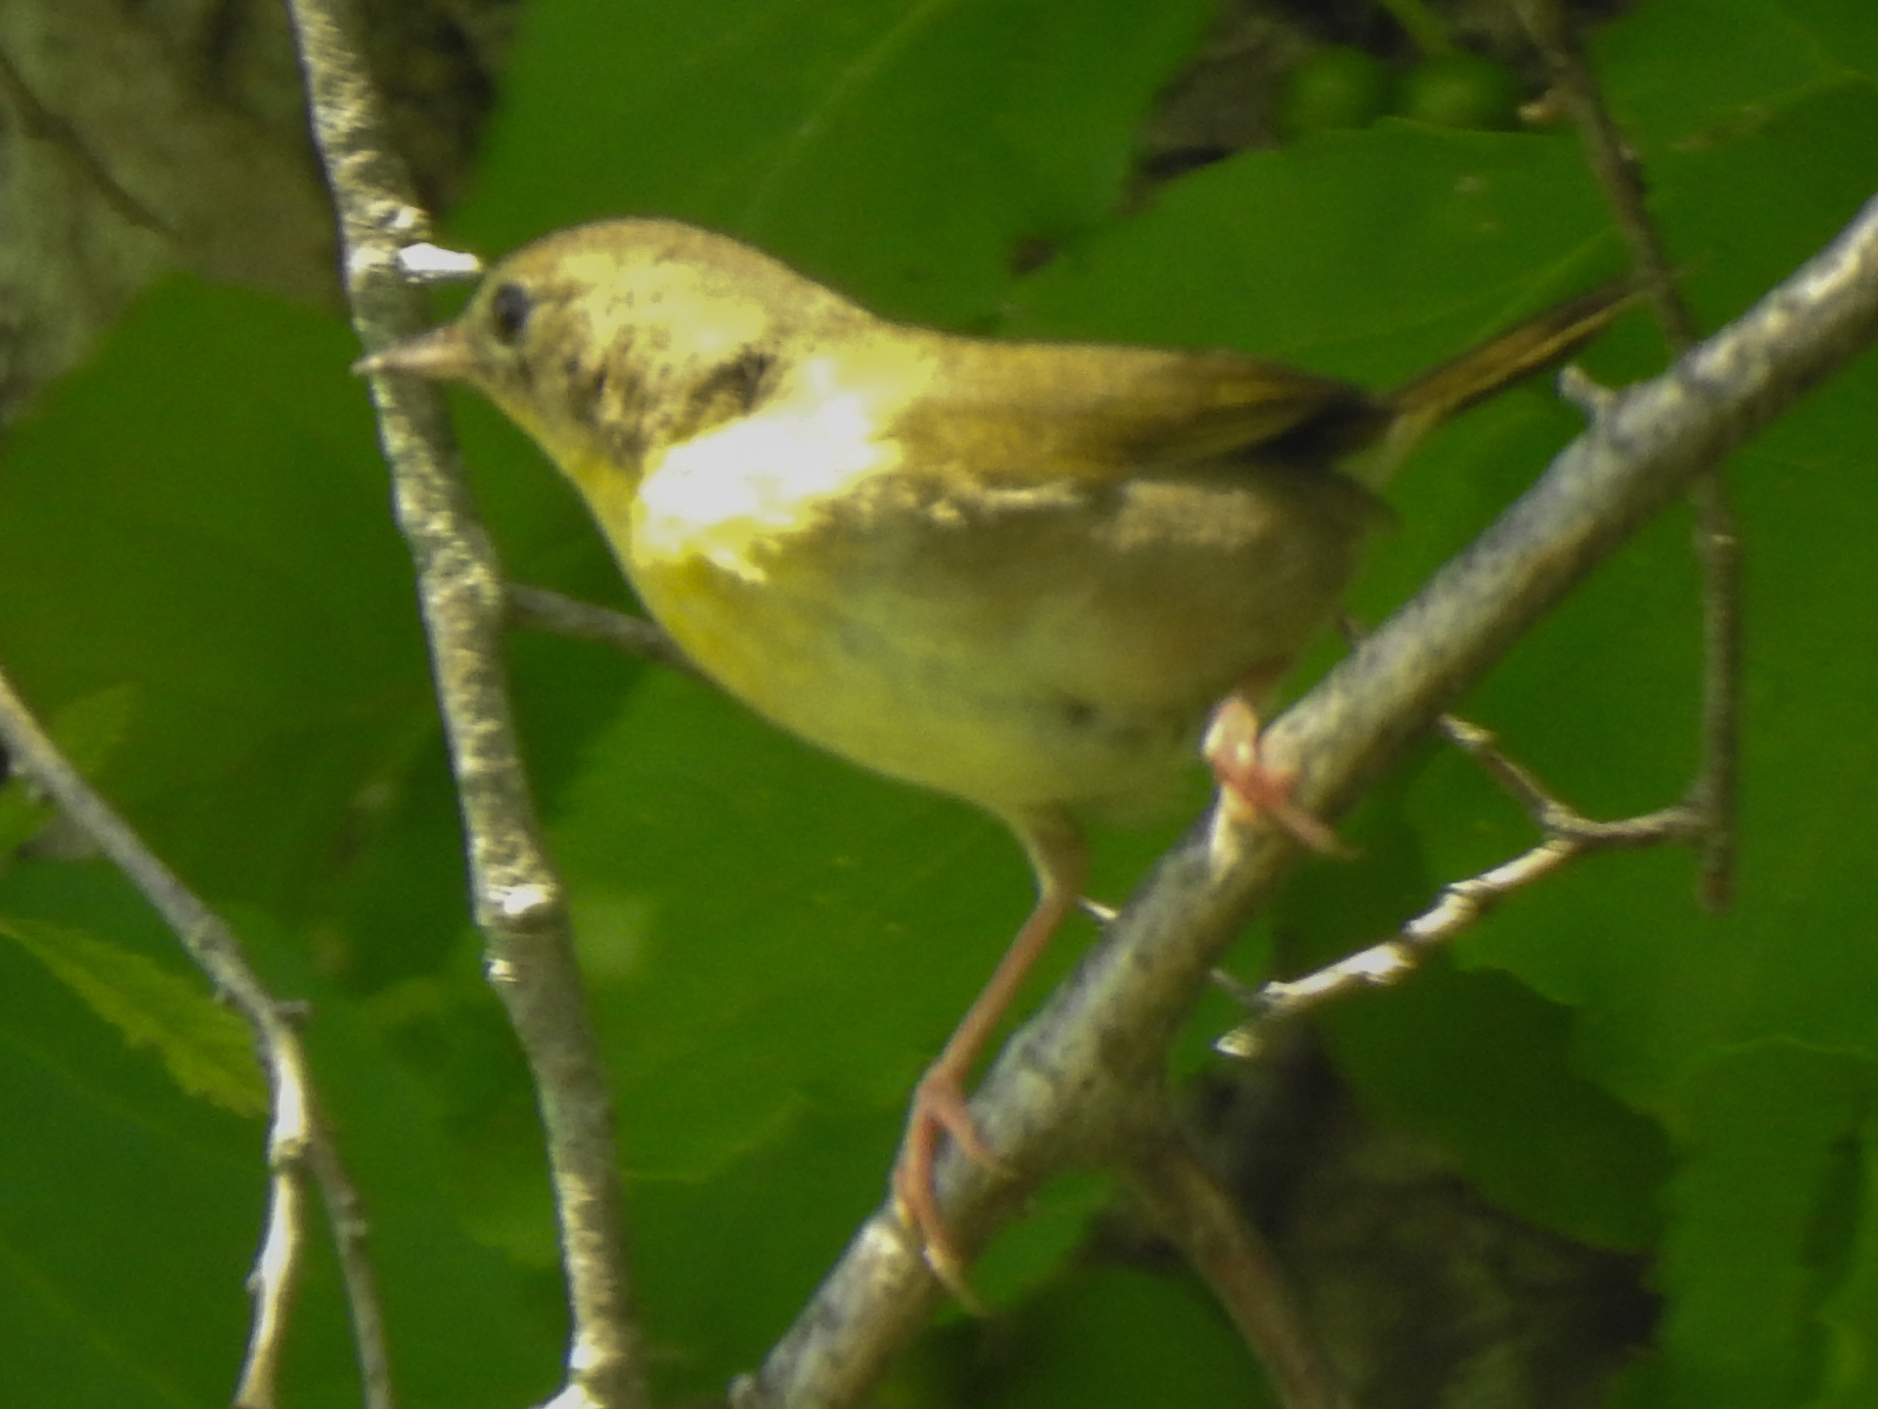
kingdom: Animalia
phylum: Chordata
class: Aves
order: Passeriformes
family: Parulidae
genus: Geothlypis
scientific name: Geothlypis trichas
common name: Common yellowthroat
